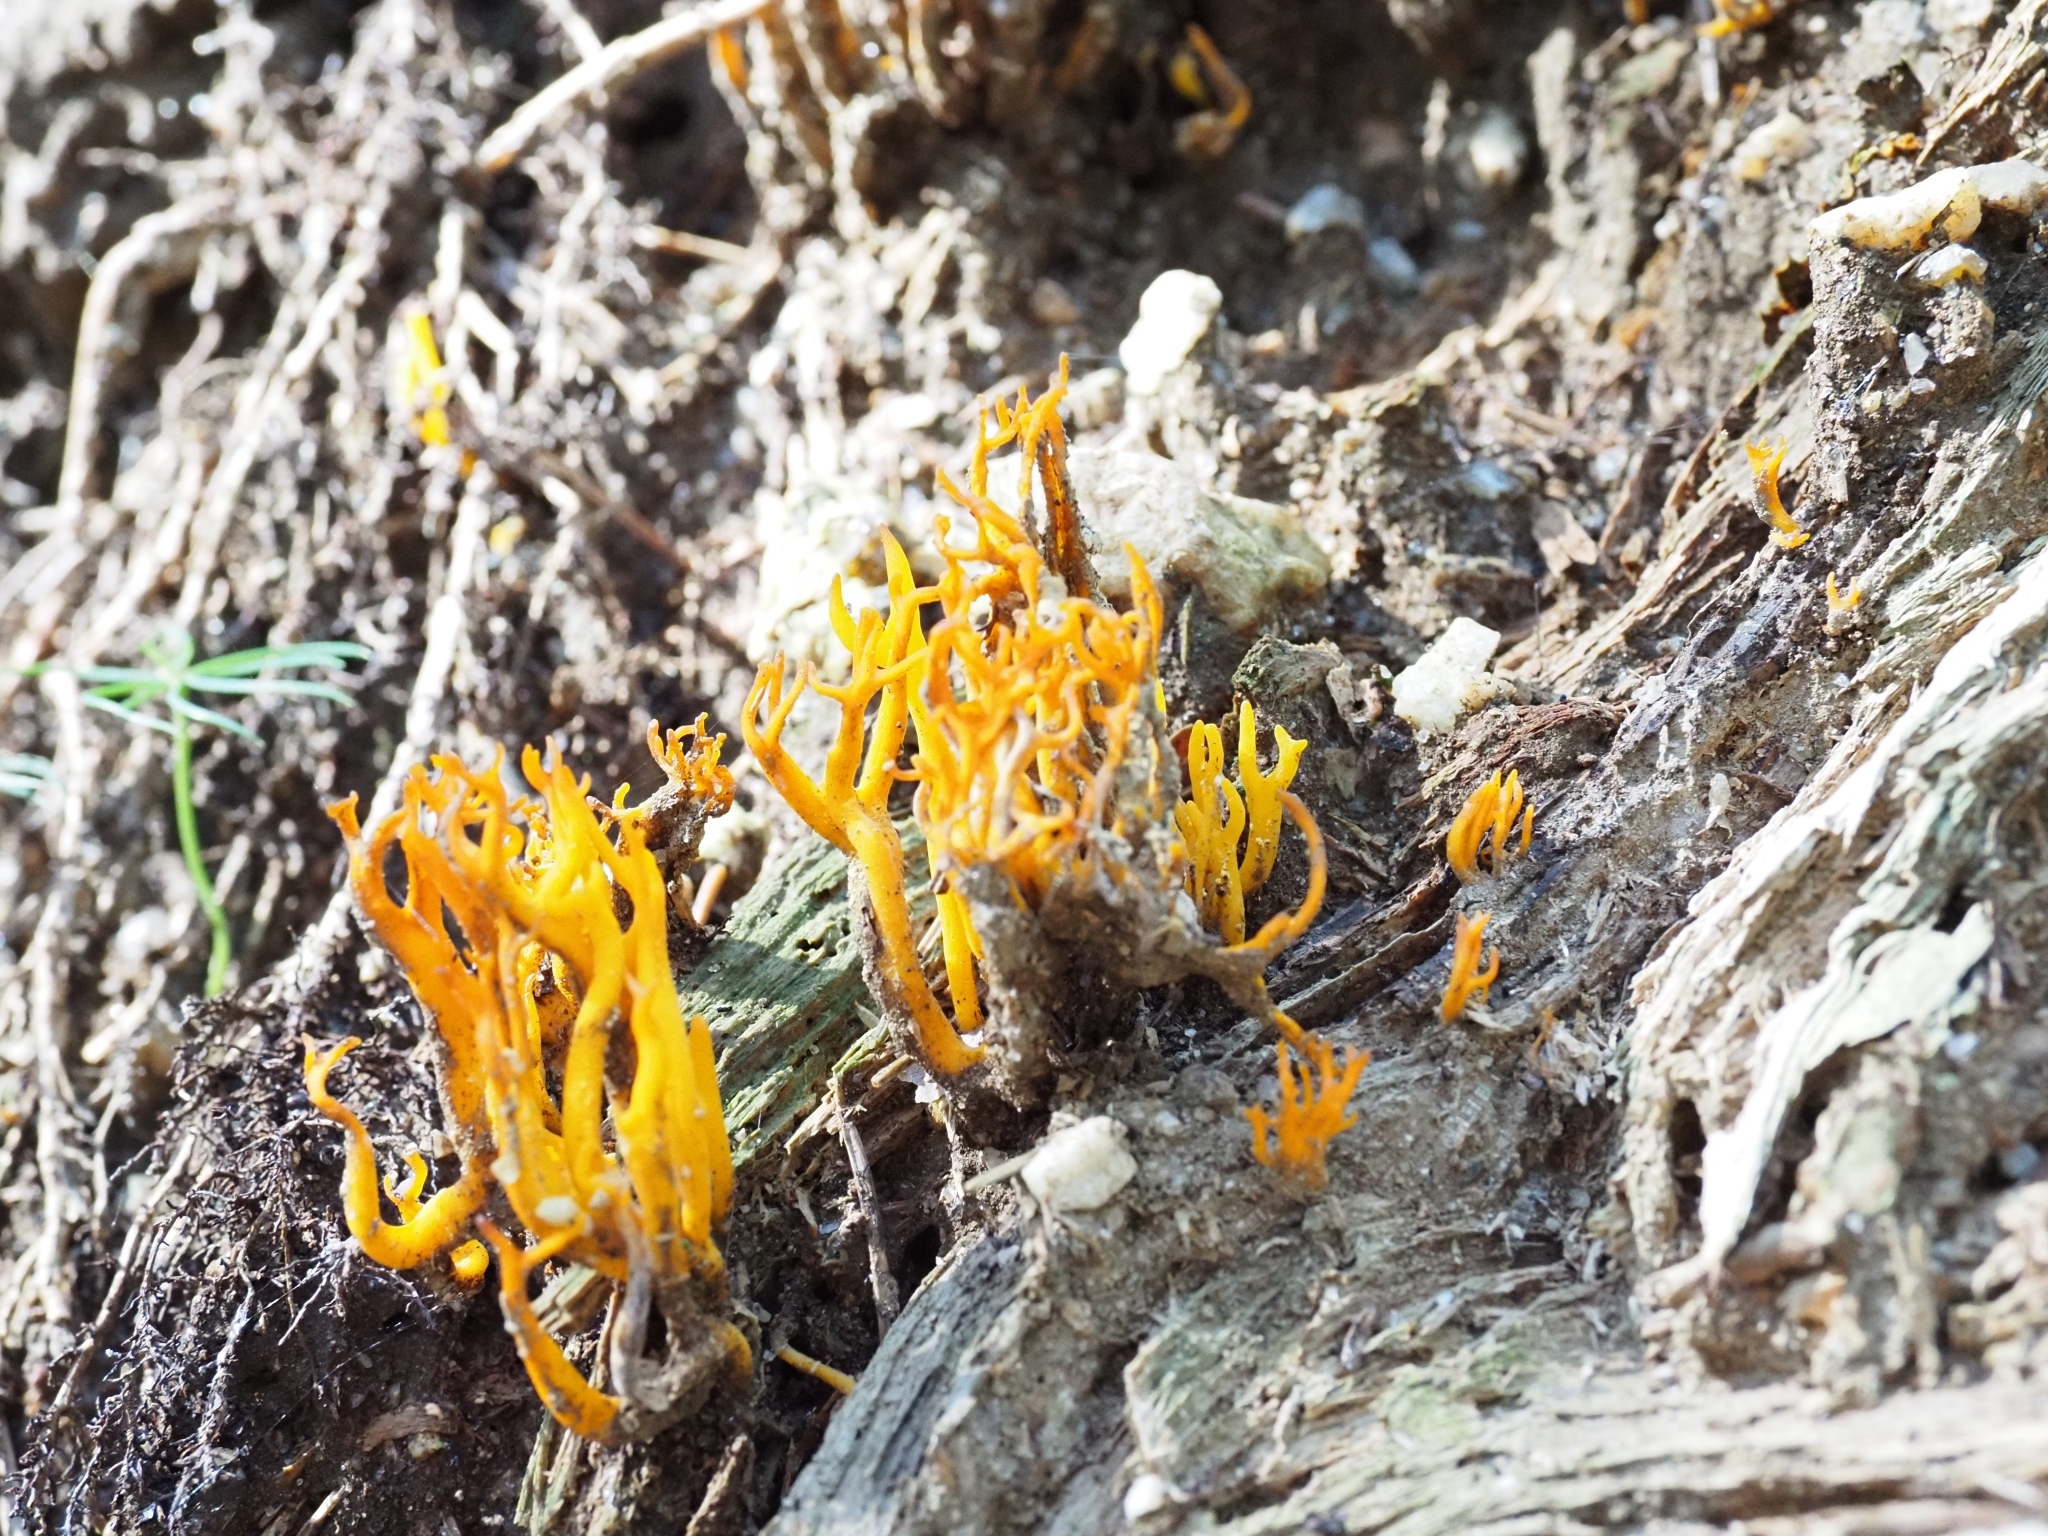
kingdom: Fungi
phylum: Basidiomycota
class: Dacrymycetes
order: Dacrymycetales
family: Dacrymycetaceae
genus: Calocera
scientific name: Calocera viscosa
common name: Yellow stagshorn
